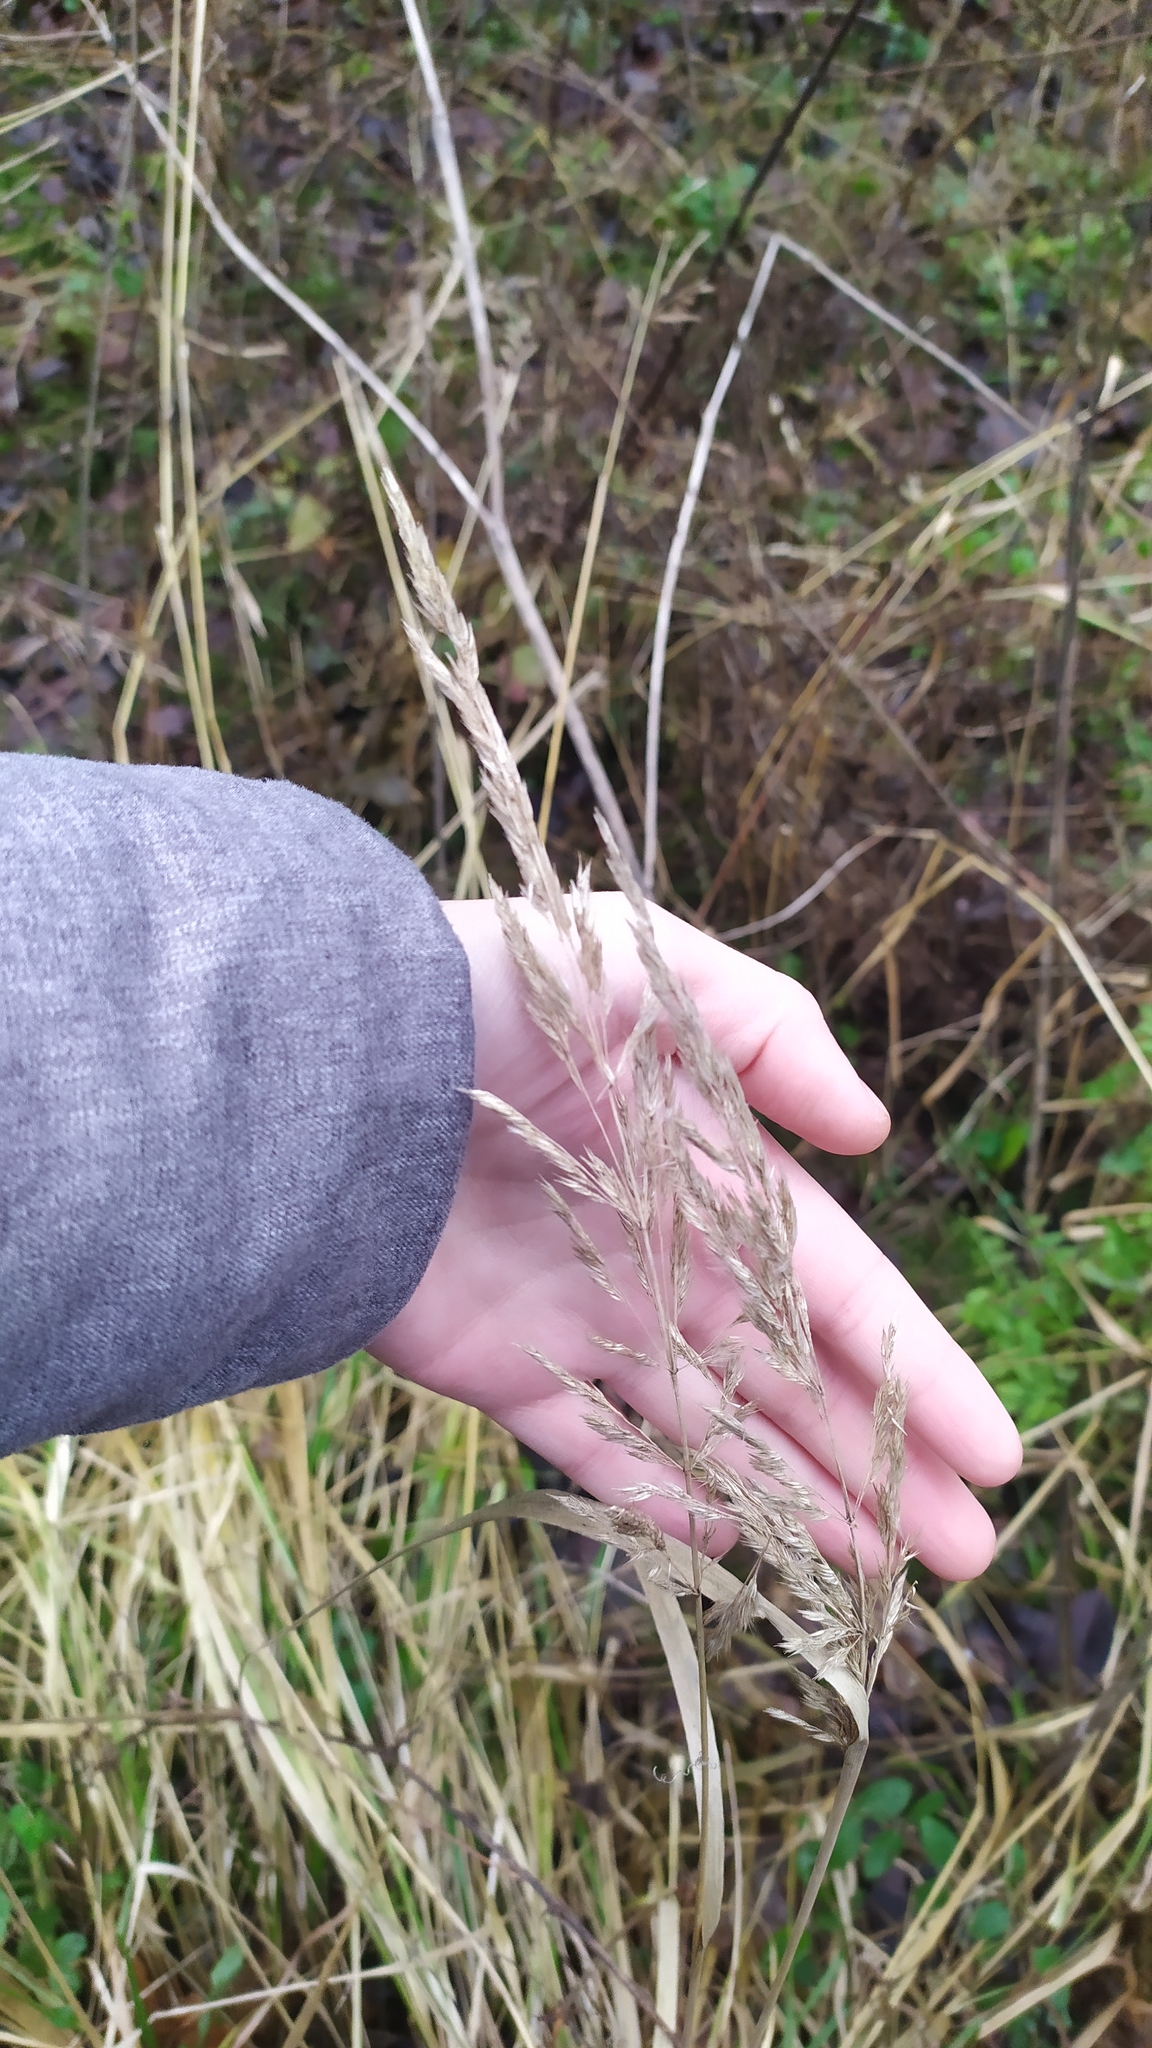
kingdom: Plantae
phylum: Tracheophyta
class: Liliopsida
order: Poales
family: Poaceae
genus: Calamagrostis
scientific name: Calamagrostis epigejos
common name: Wood small-reed
